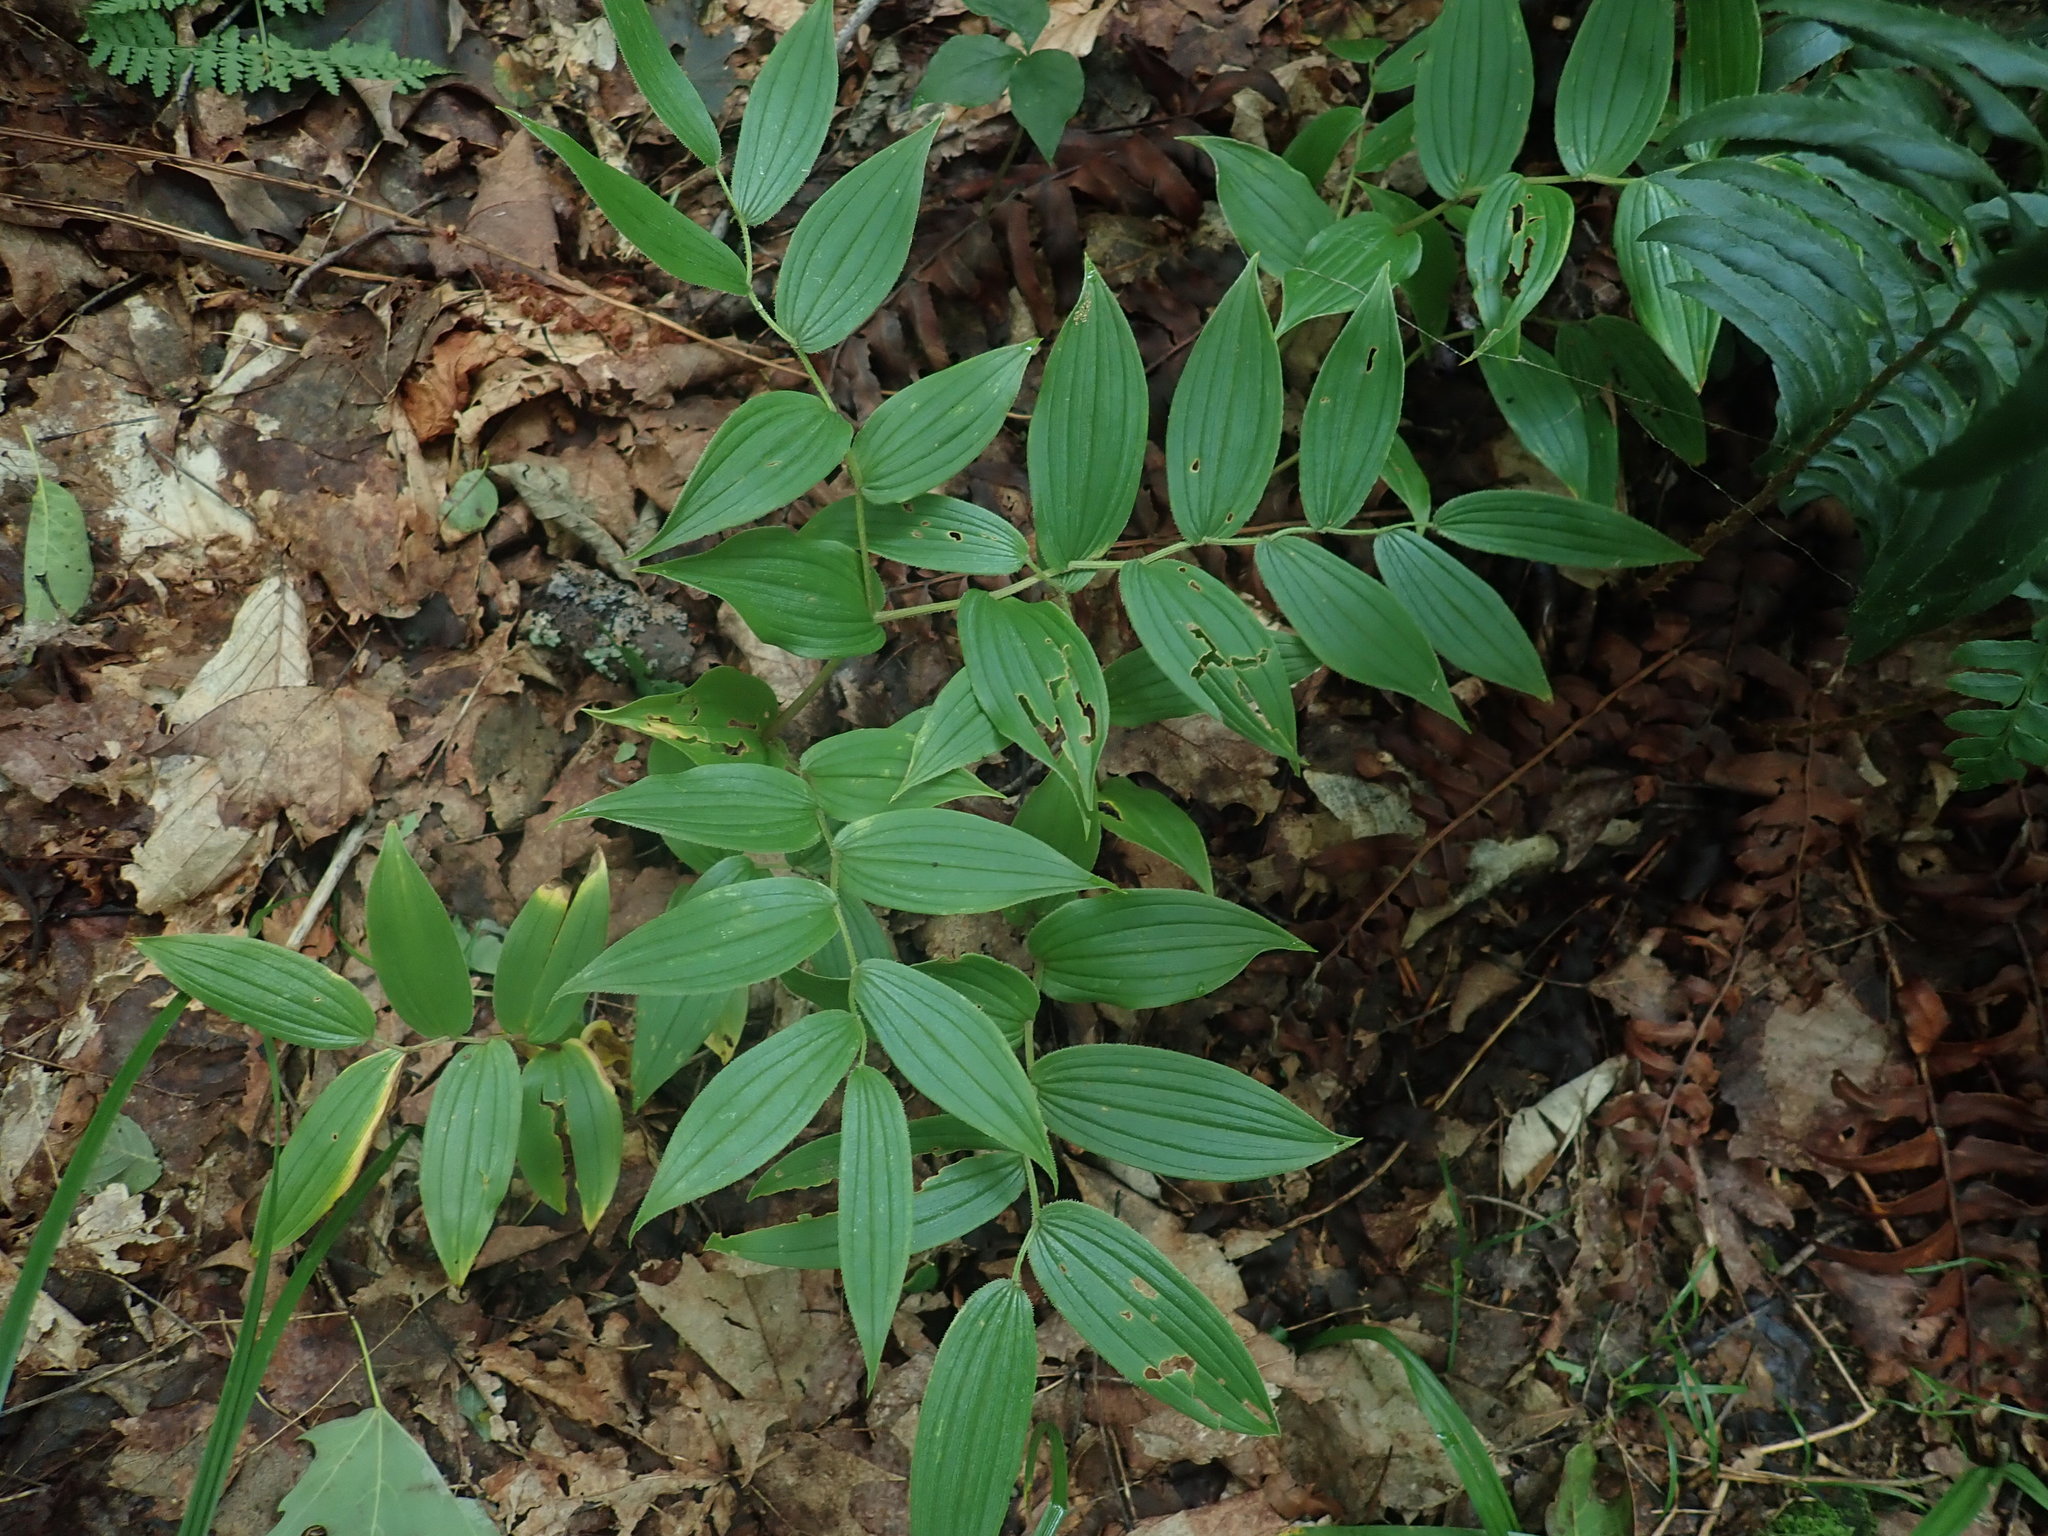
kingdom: Plantae
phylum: Tracheophyta
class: Liliopsida
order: Liliales
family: Liliaceae
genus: Streptopus
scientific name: Streptopus lanceolatus
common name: Rose mandarin
